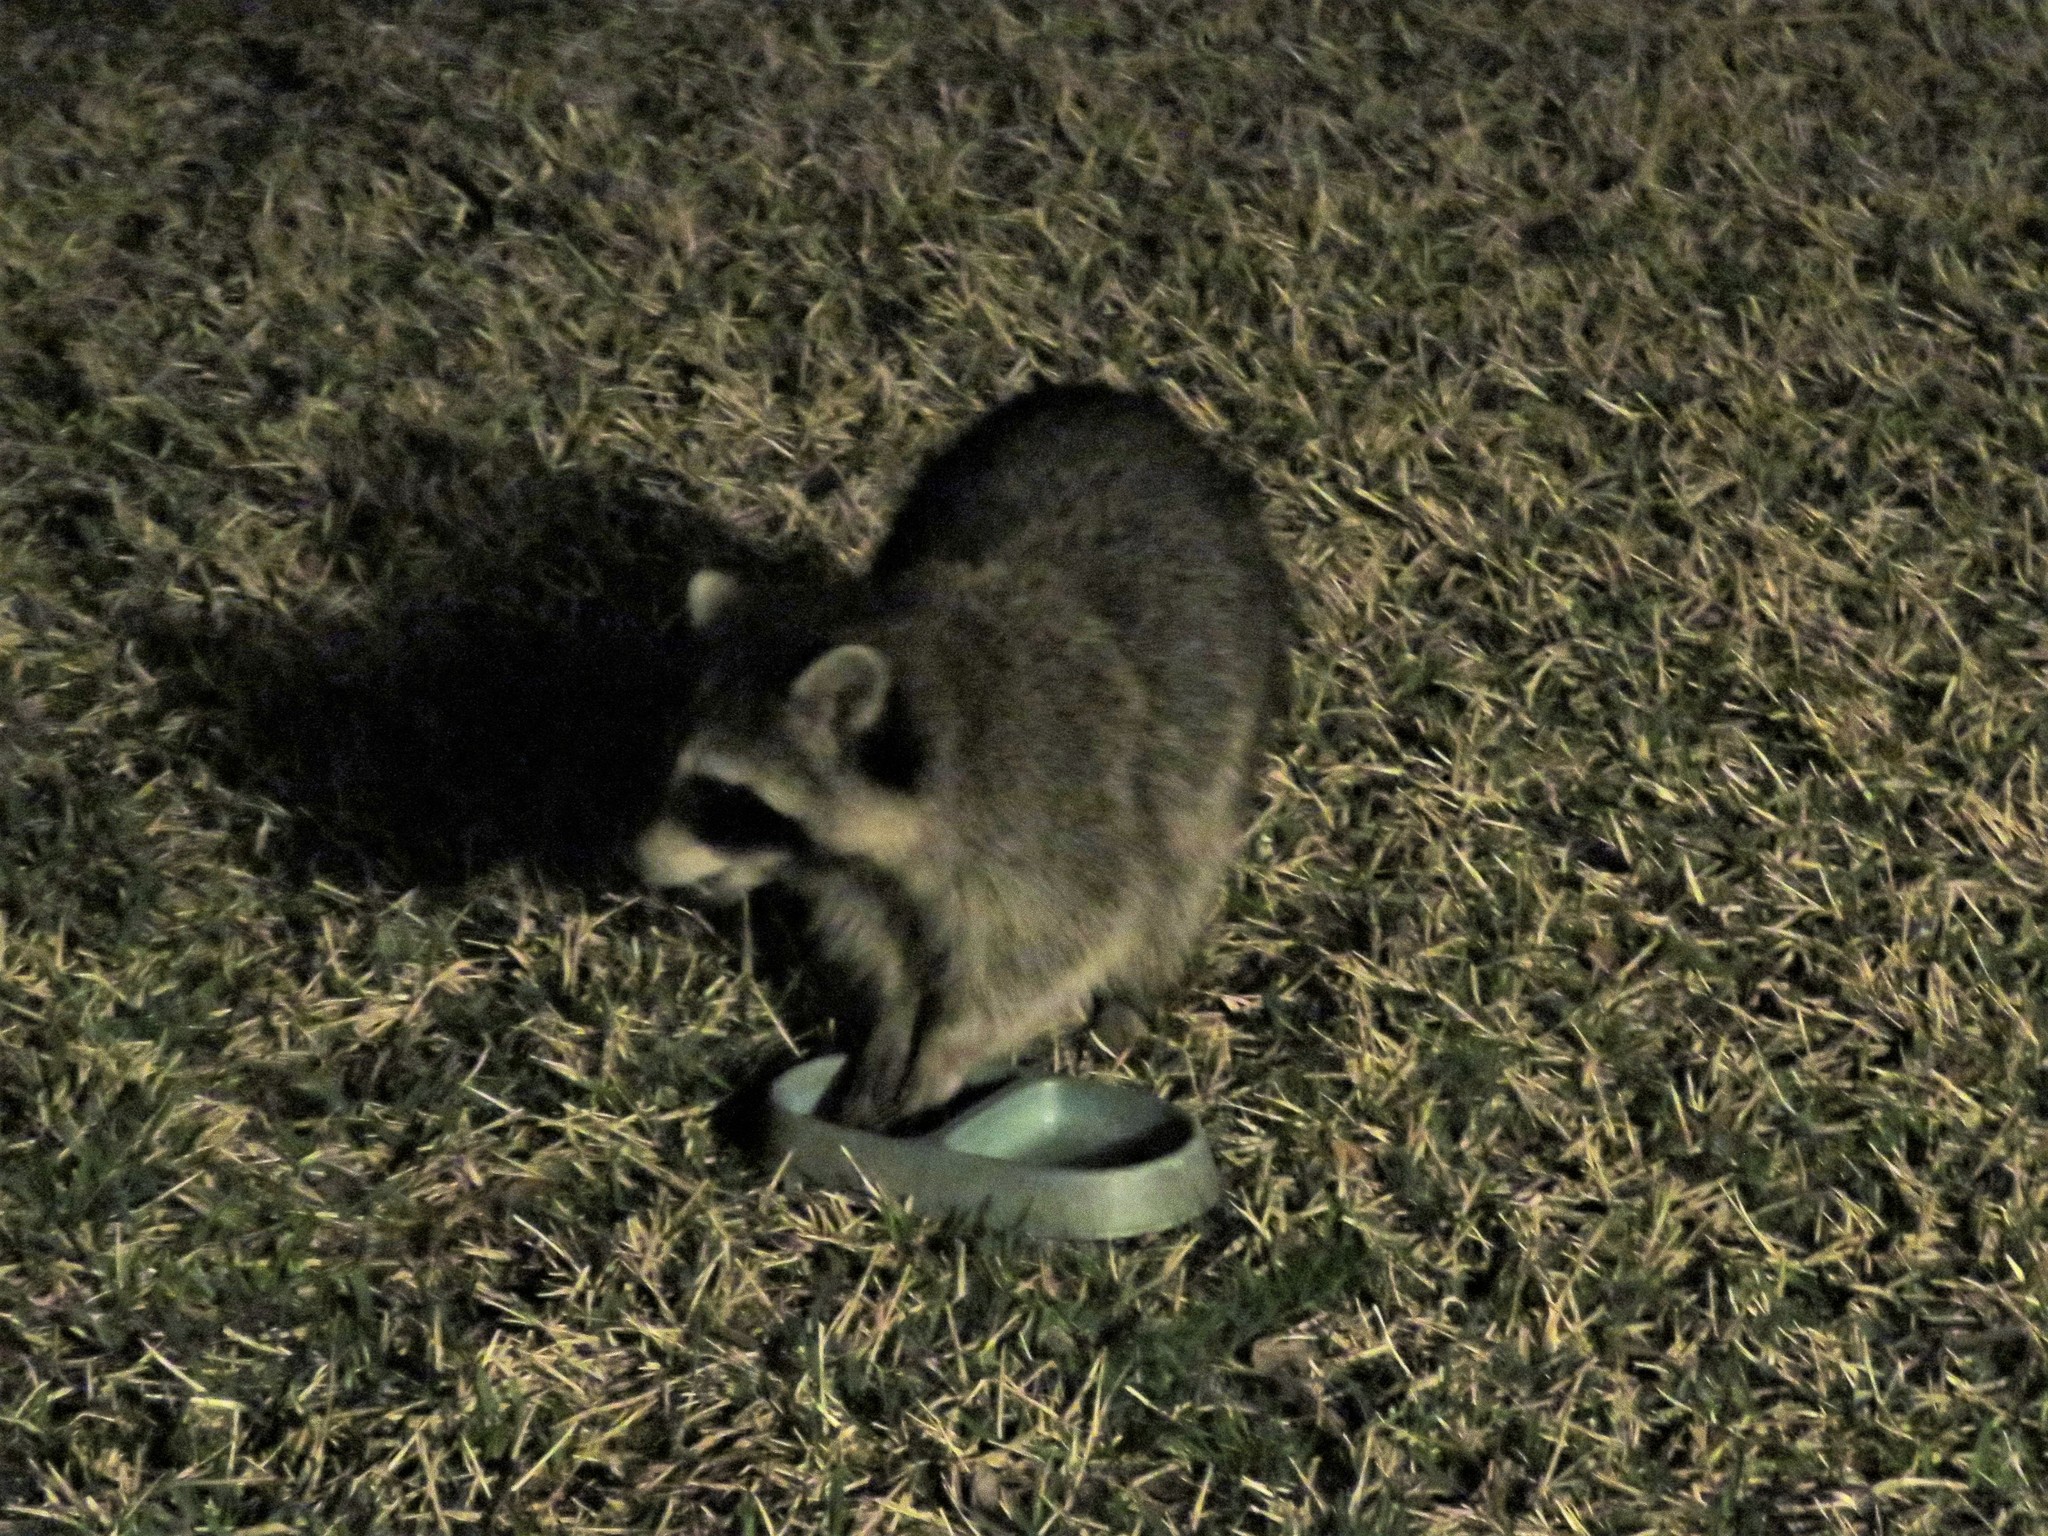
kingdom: Animalia
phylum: Chordata
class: Mammalia
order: Carnivora
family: Procyonidae
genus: Procyon
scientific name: Procyon lotor
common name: Raccoon
